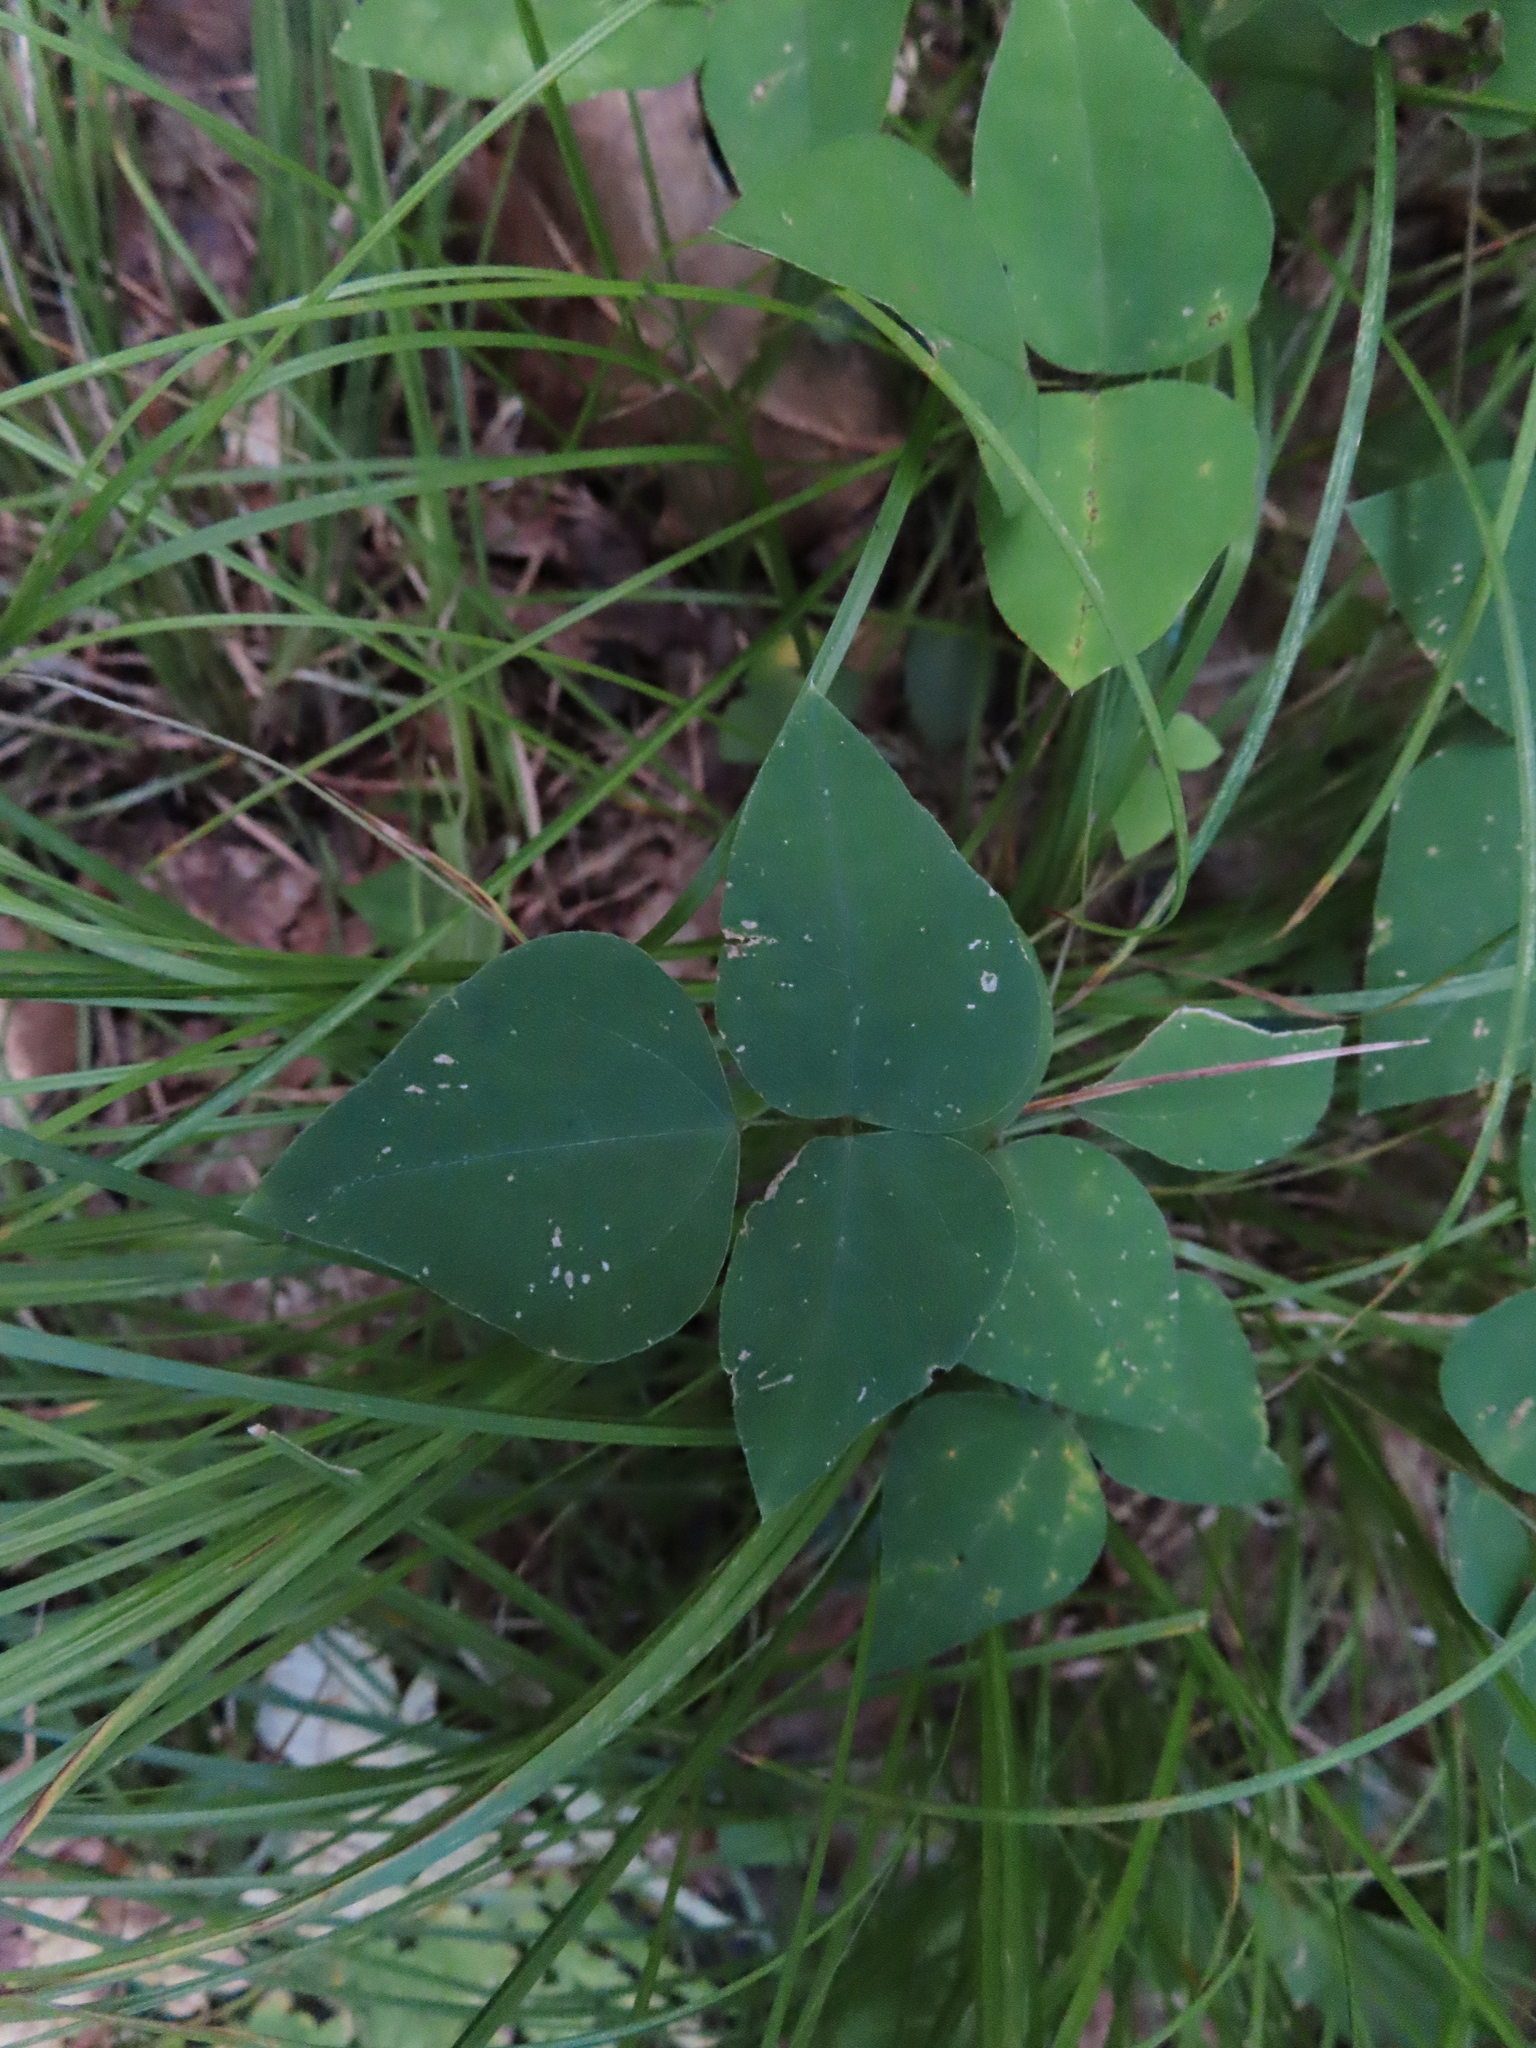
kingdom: Plantae
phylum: Tracheophyta
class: Magnoliopsida
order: Fabales
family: Fabaceae
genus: Amphicarpaea
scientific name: Amphicarpaea bracteata
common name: American hog peanut
